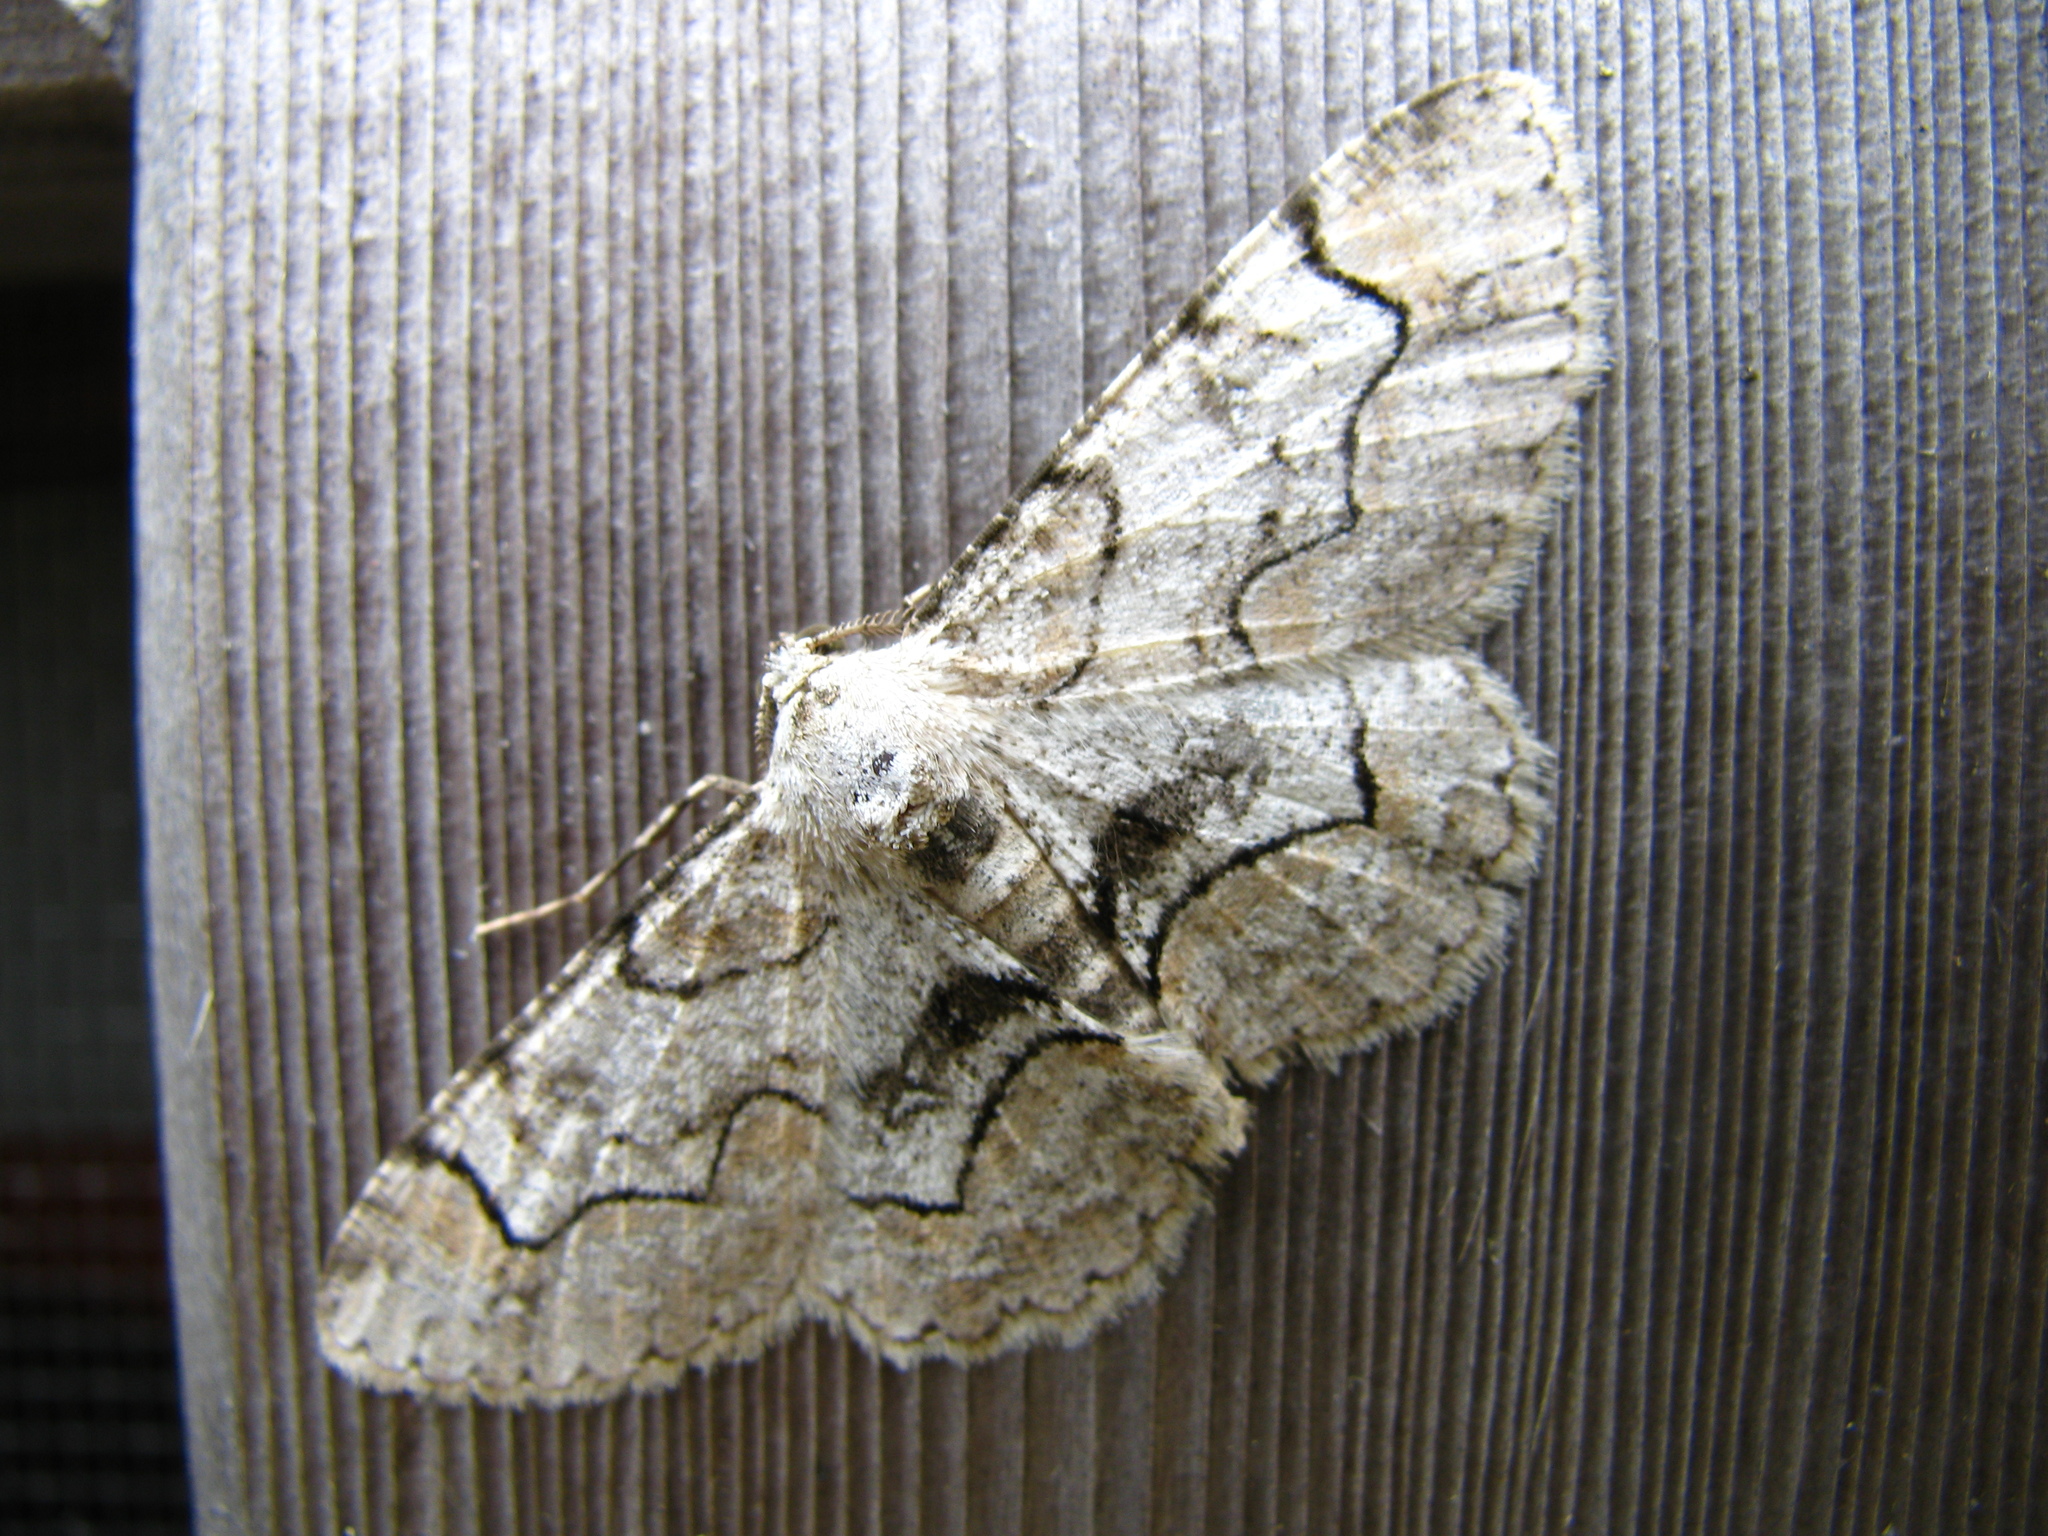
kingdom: Animalia
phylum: Arthropoda
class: Insecta
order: Lepidoptera
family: Geometridae
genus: Iridopsis
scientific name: Iridopsis larvaria
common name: Bent-line gray
